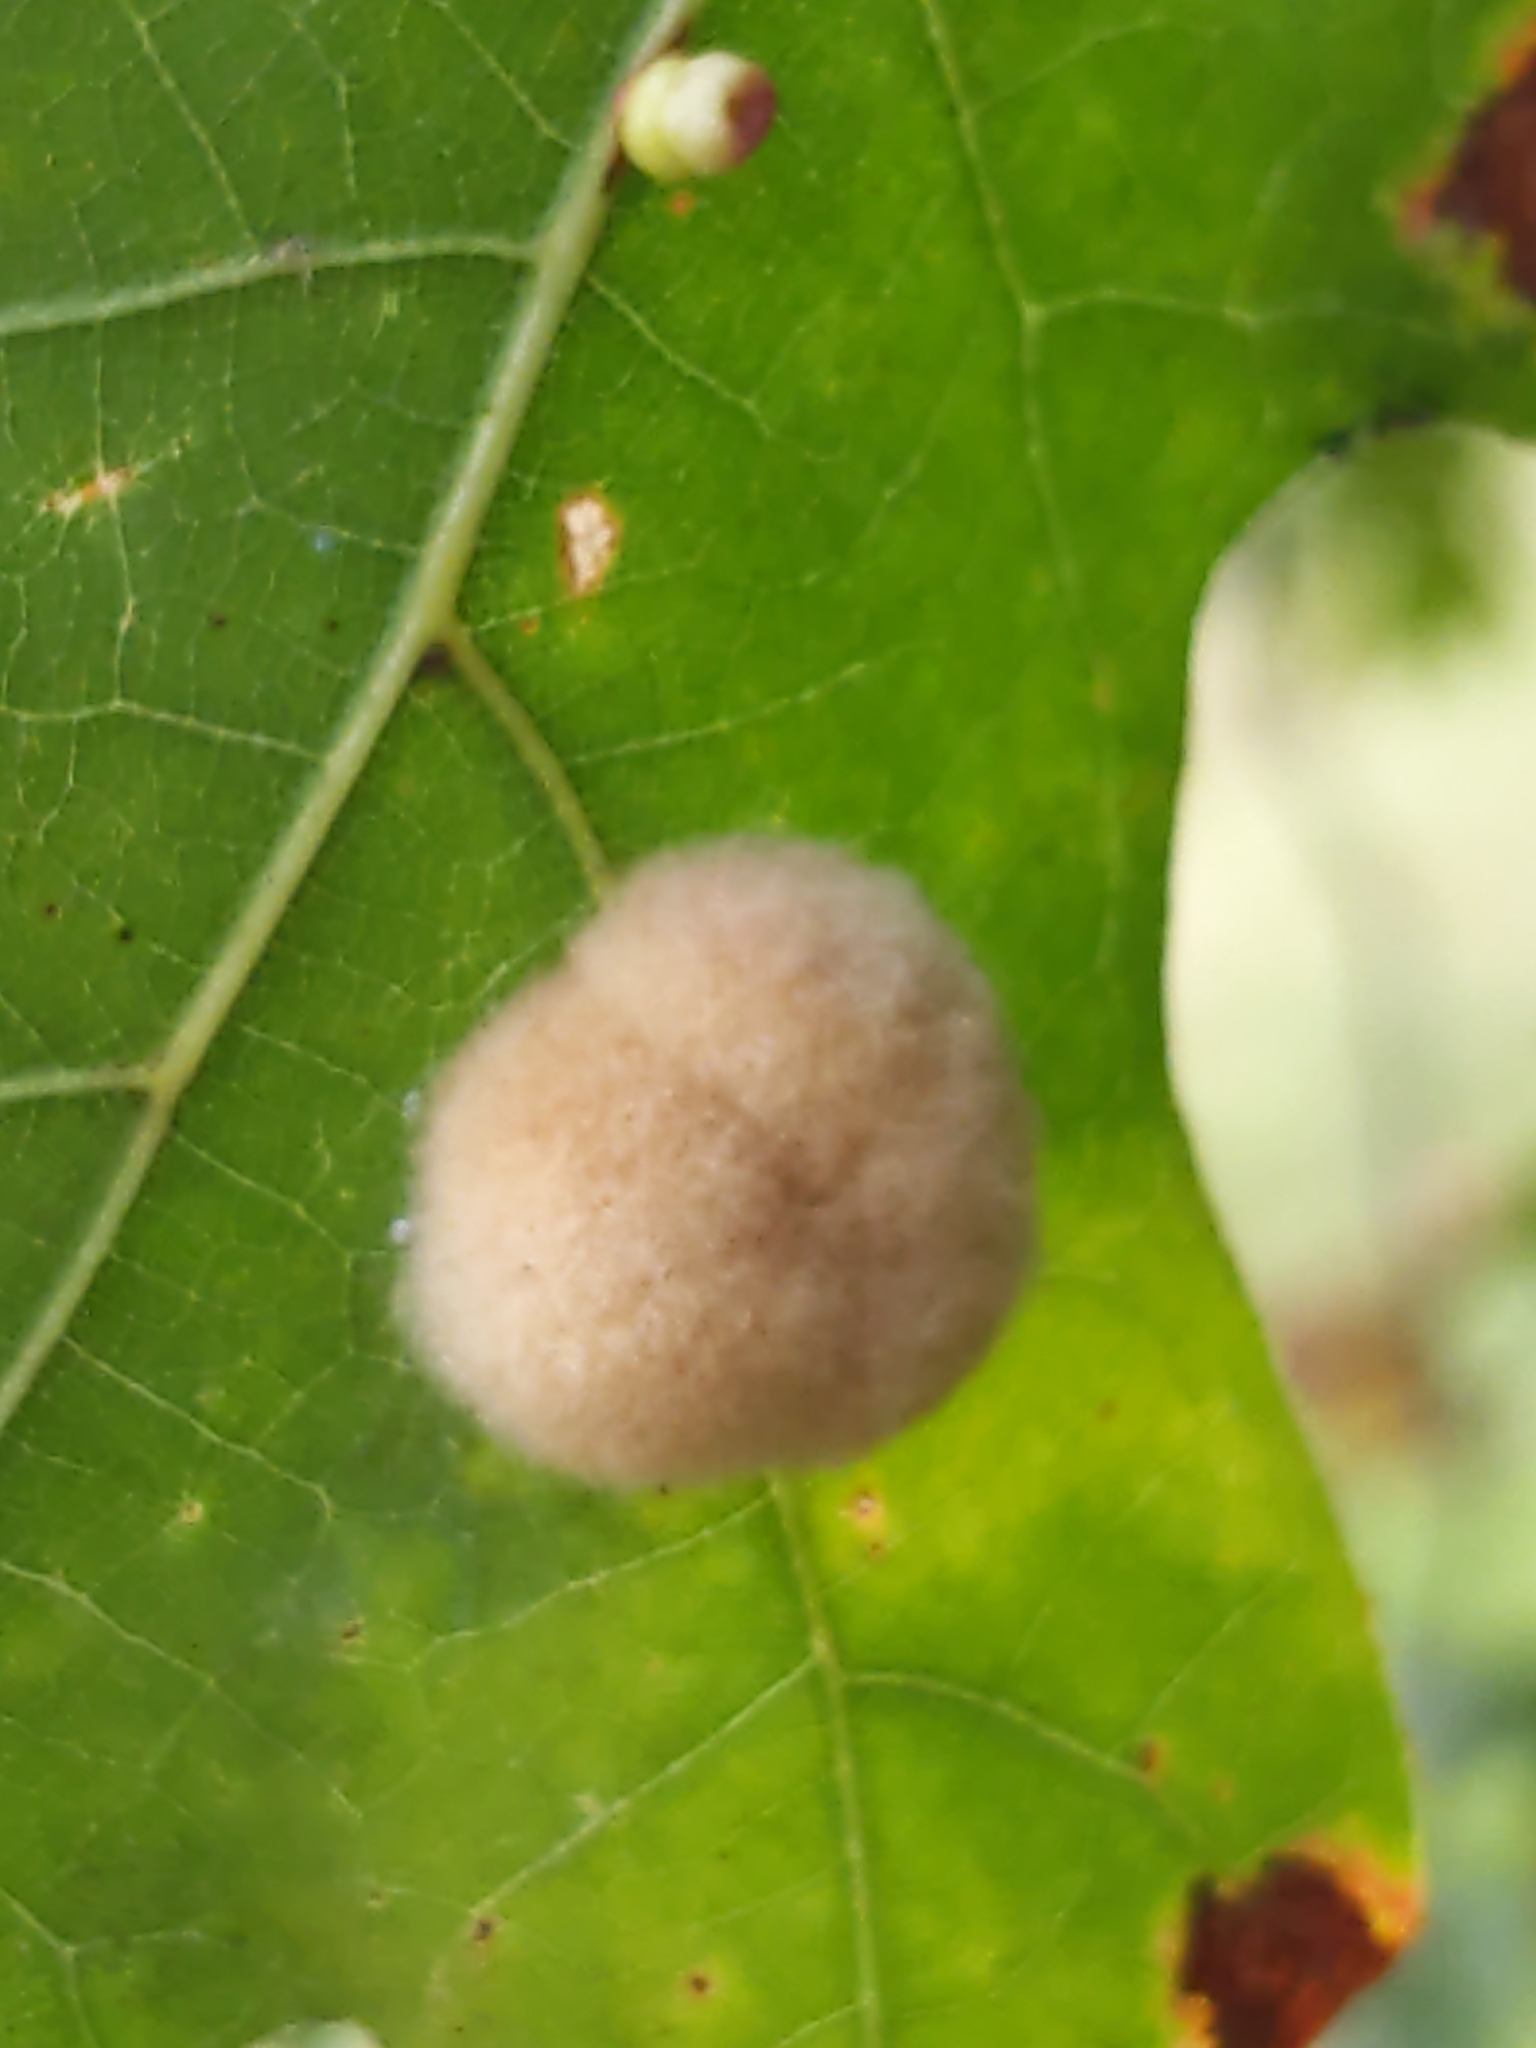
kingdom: Animalia
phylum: Arthropoda
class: Insecta
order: Hymenoptera
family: Cynipidae
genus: Callirhytis
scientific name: Callirhytis
